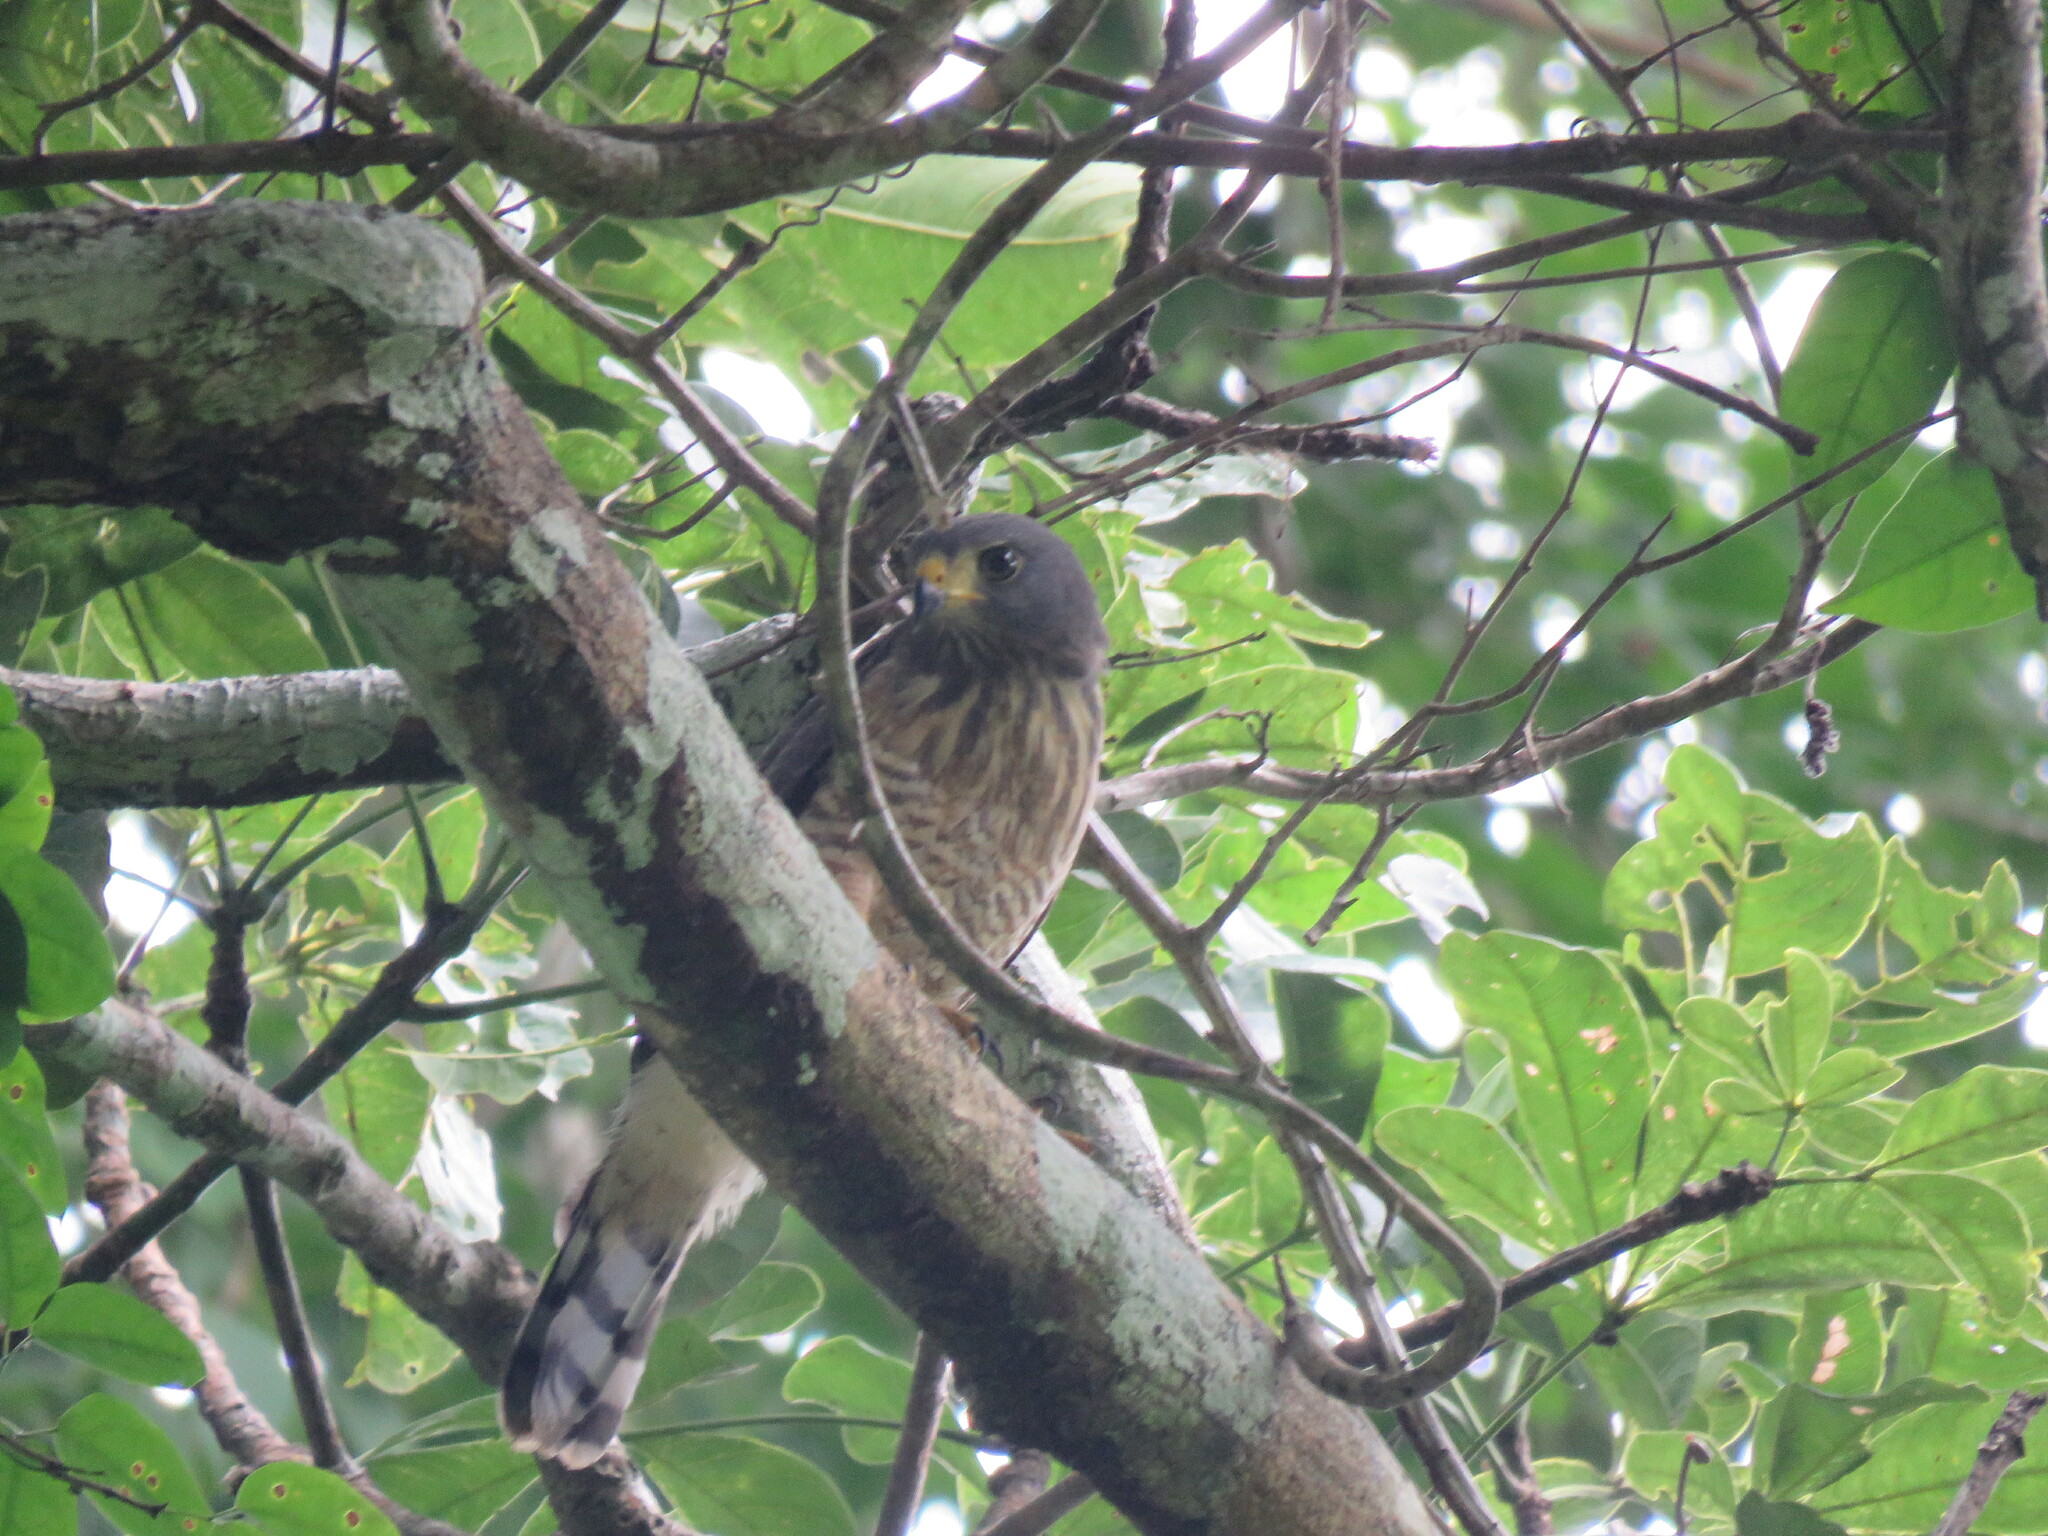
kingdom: Animalia
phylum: Chordata
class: Aves
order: Accipitriformes
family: Accipitridae
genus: Rupornis
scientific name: Rupornis magnirostris
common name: Roadside hawk
